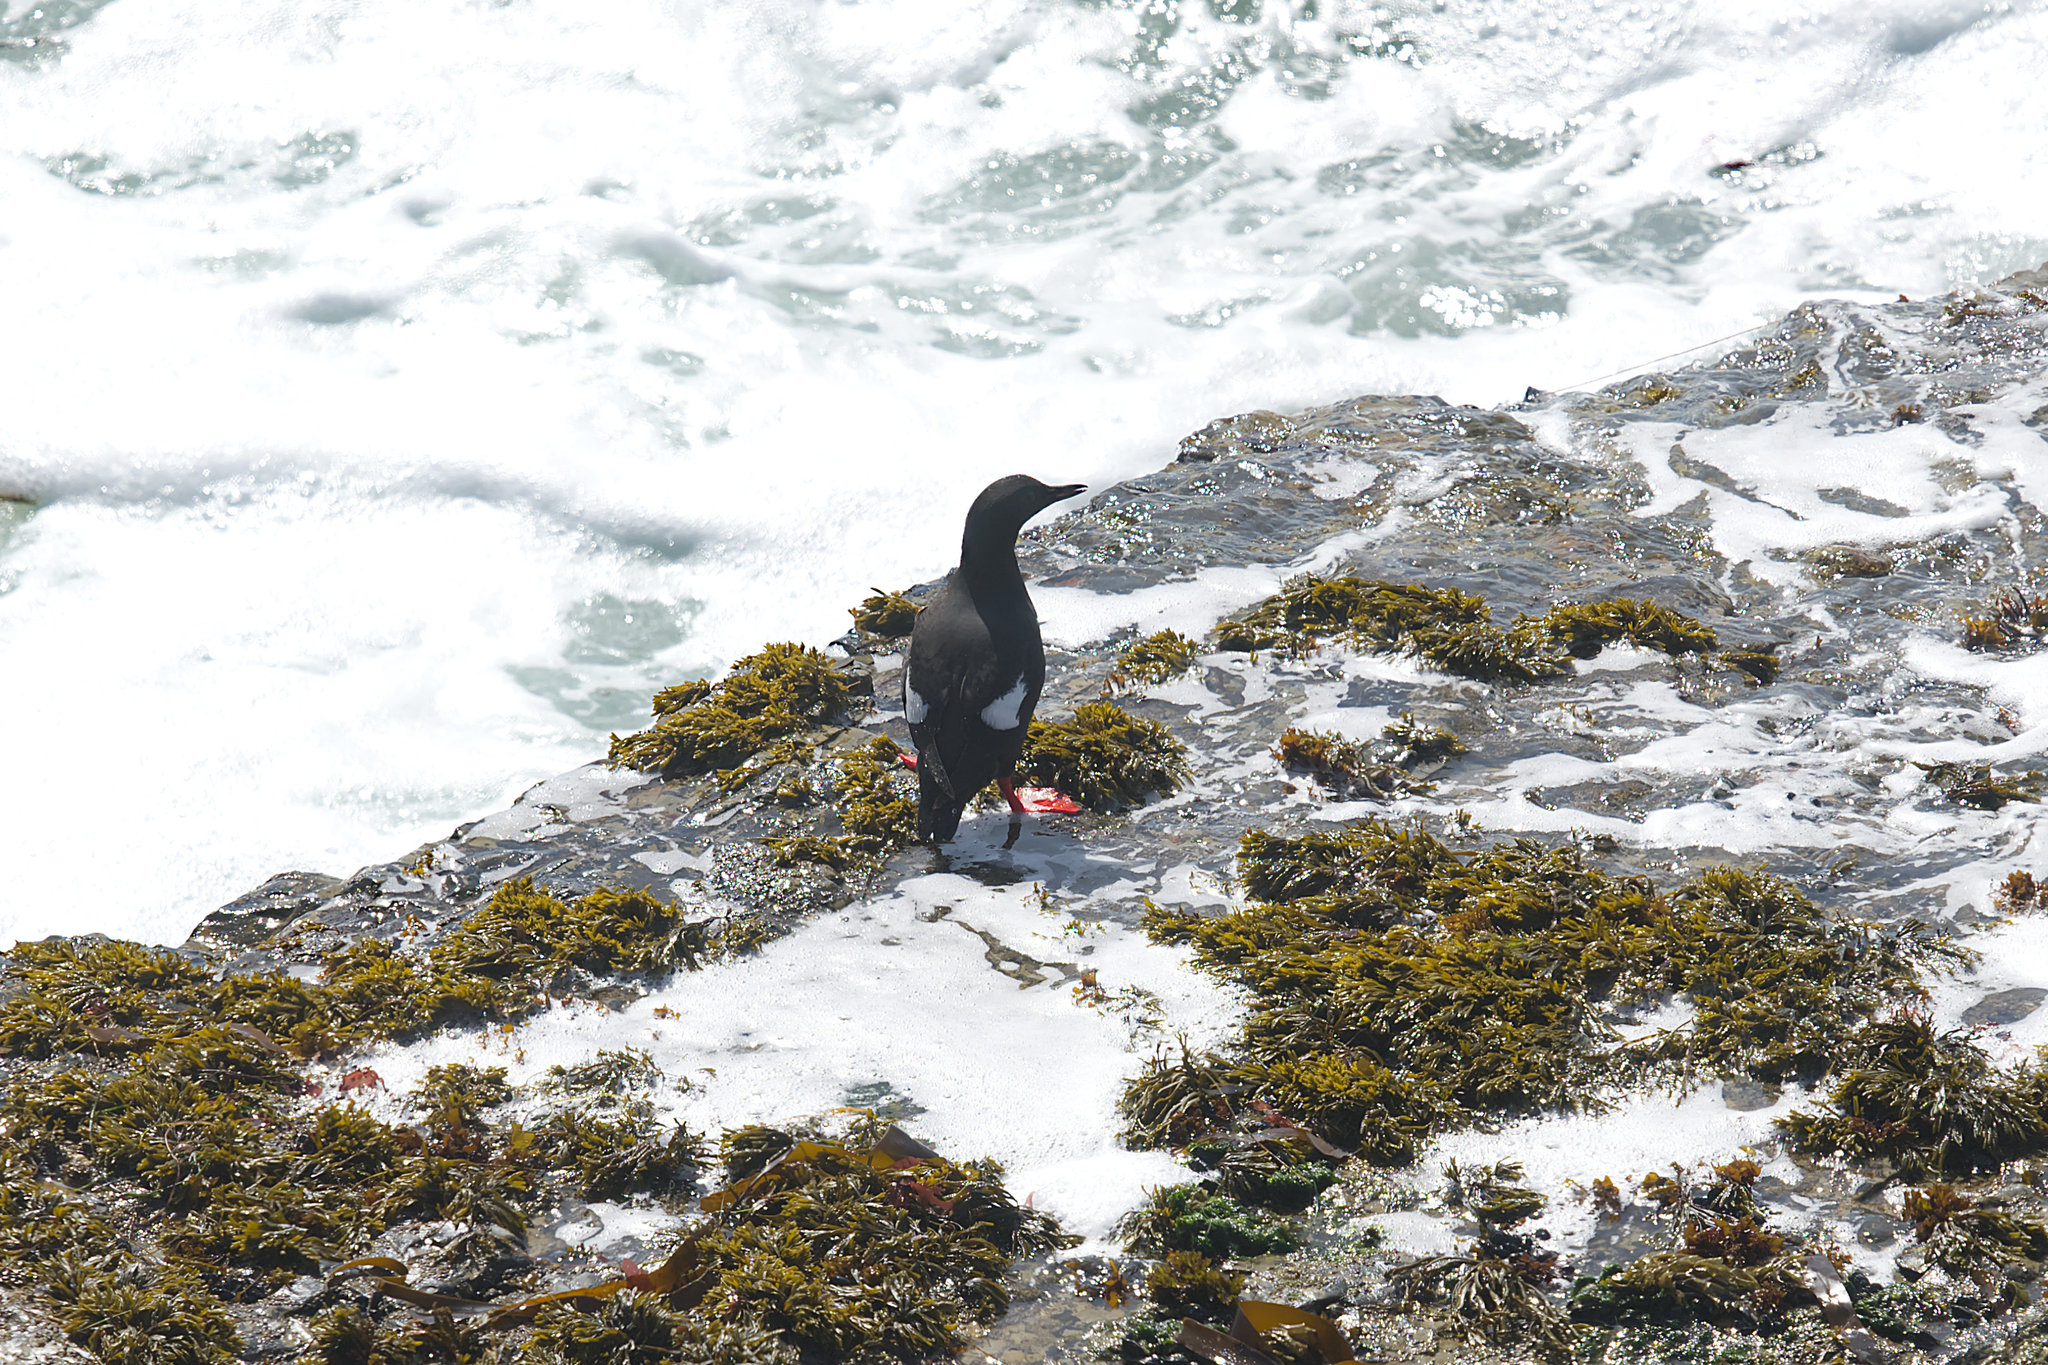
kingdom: Animalia
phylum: Chordata
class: Aves
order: Charadriiformes
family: Alcidae
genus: Cepphus
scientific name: Cepphus columba
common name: Pigeon guillemot
